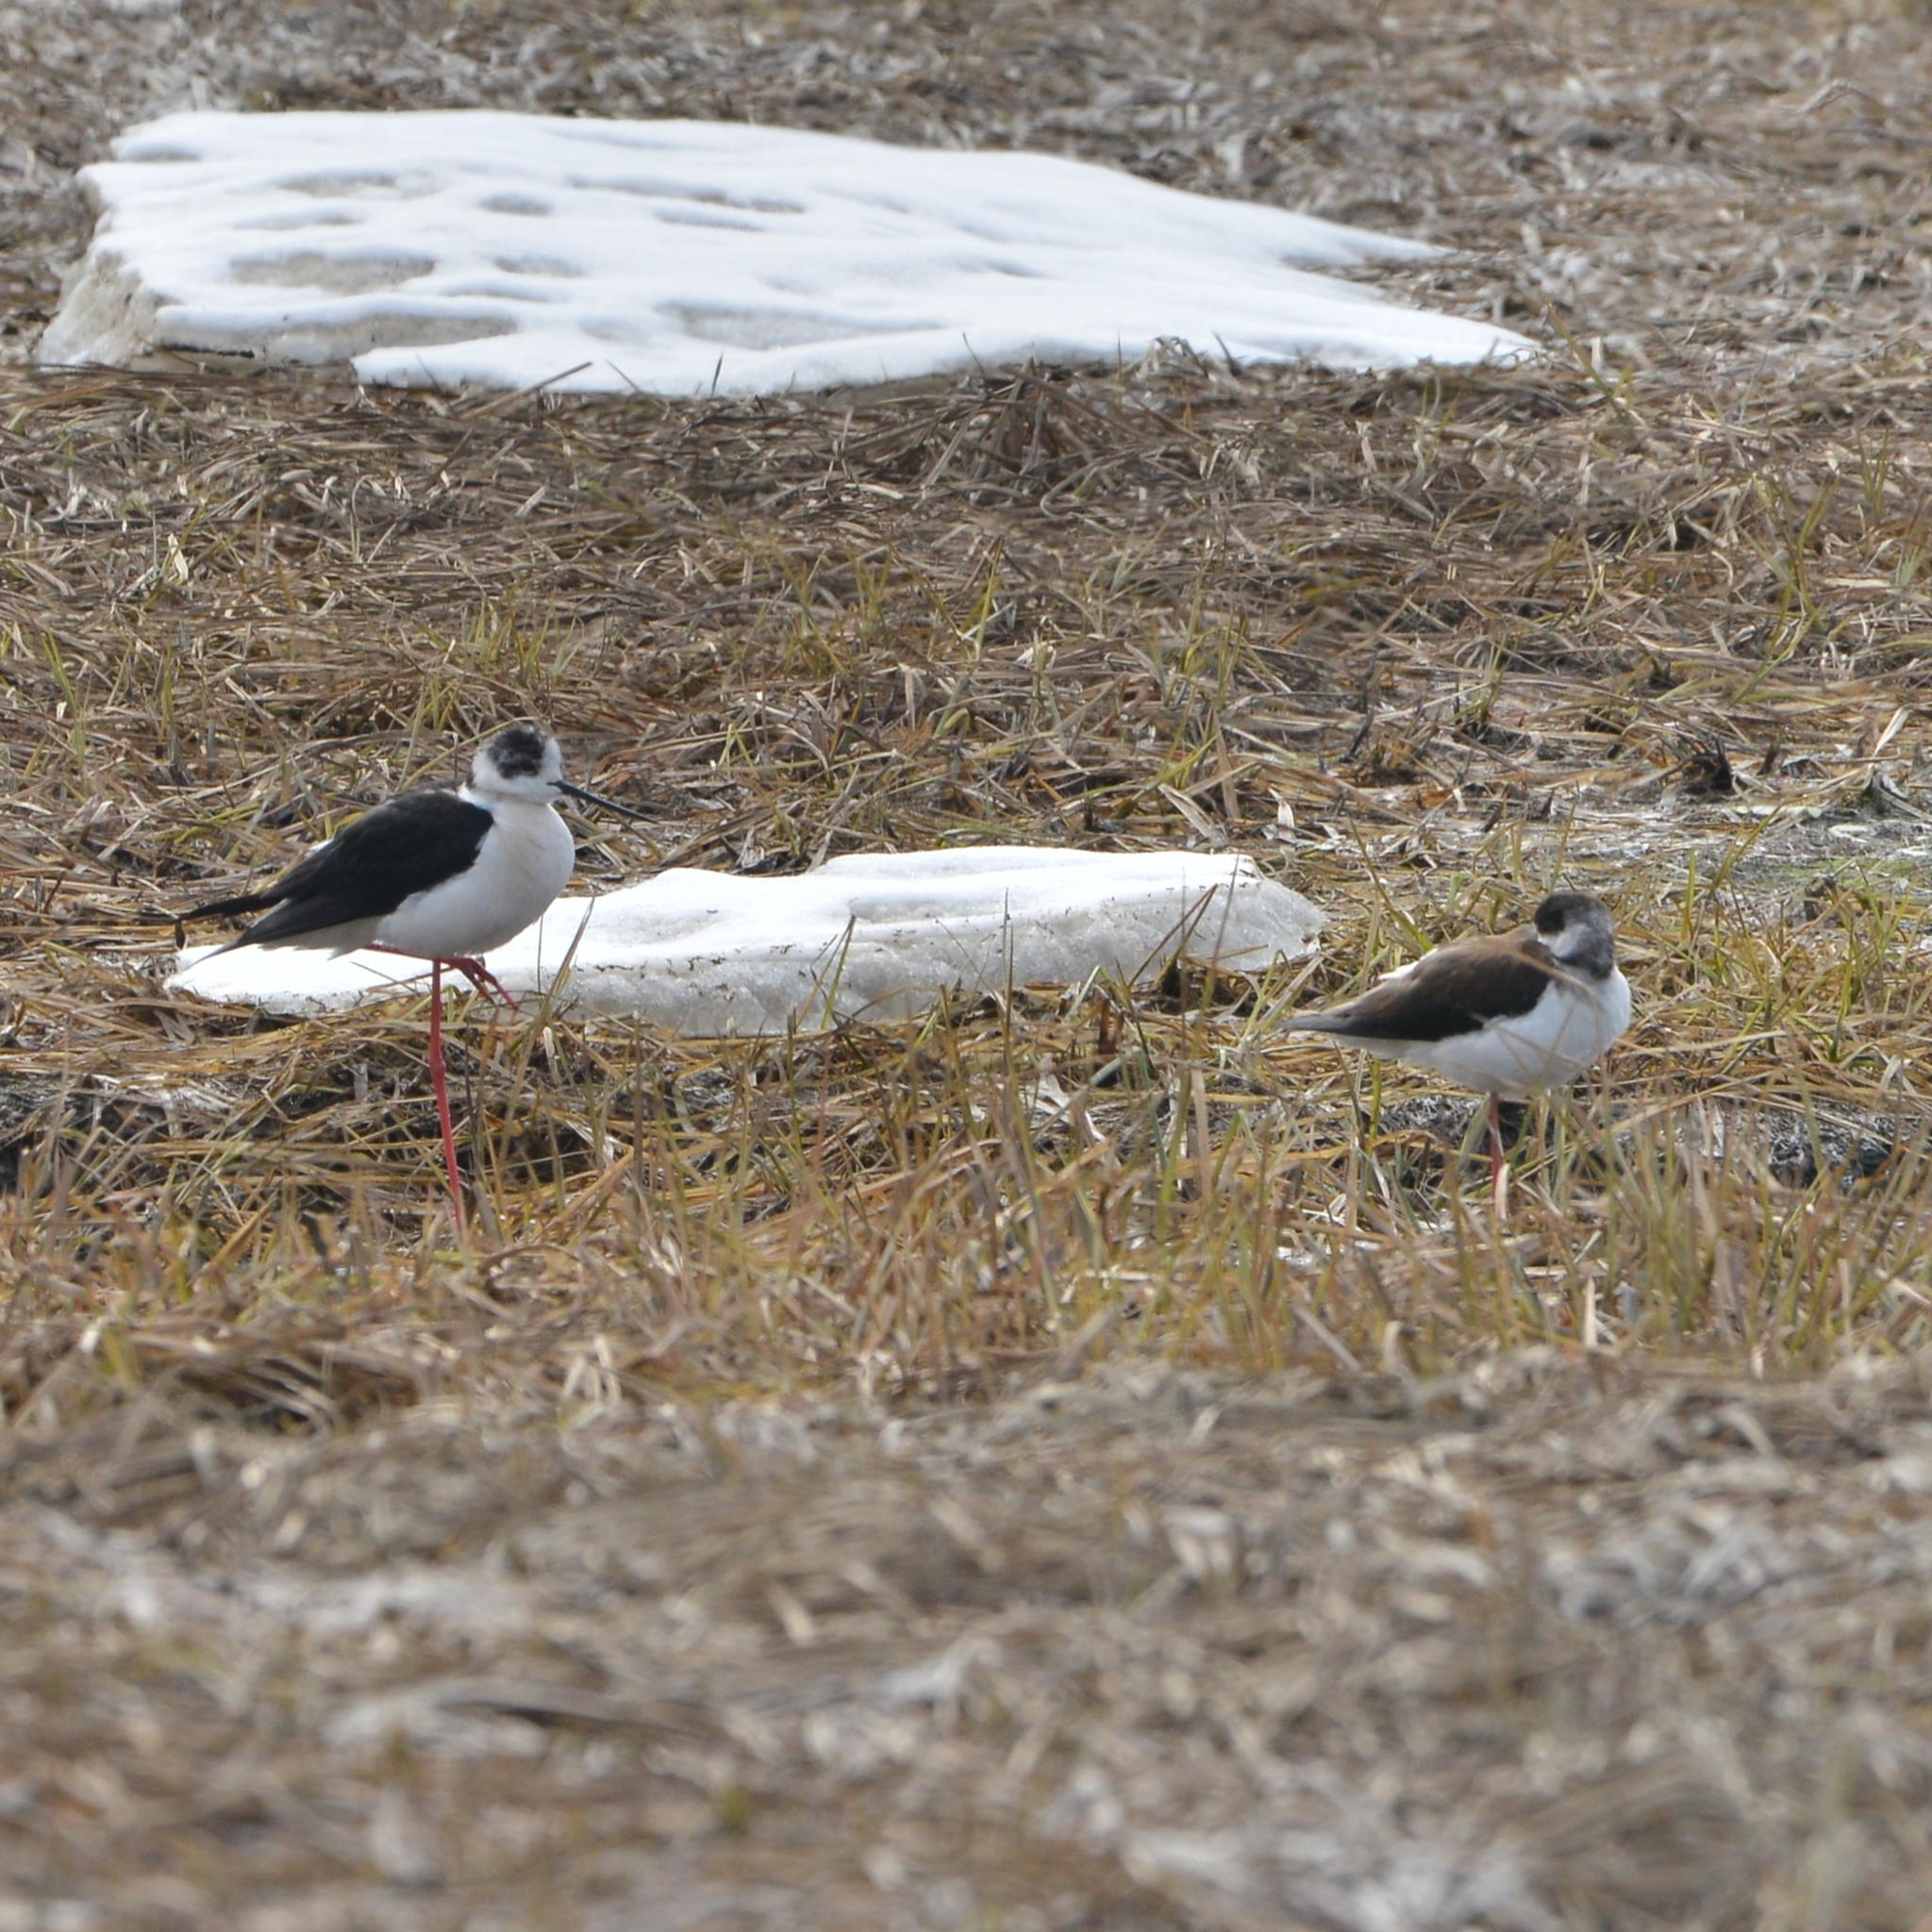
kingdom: Animalia
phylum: Chordata
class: Aves
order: Charadriiformes
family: Recurvirostridae
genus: Himantopus
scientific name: Himantopus himantopus
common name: Black-winged stilt
